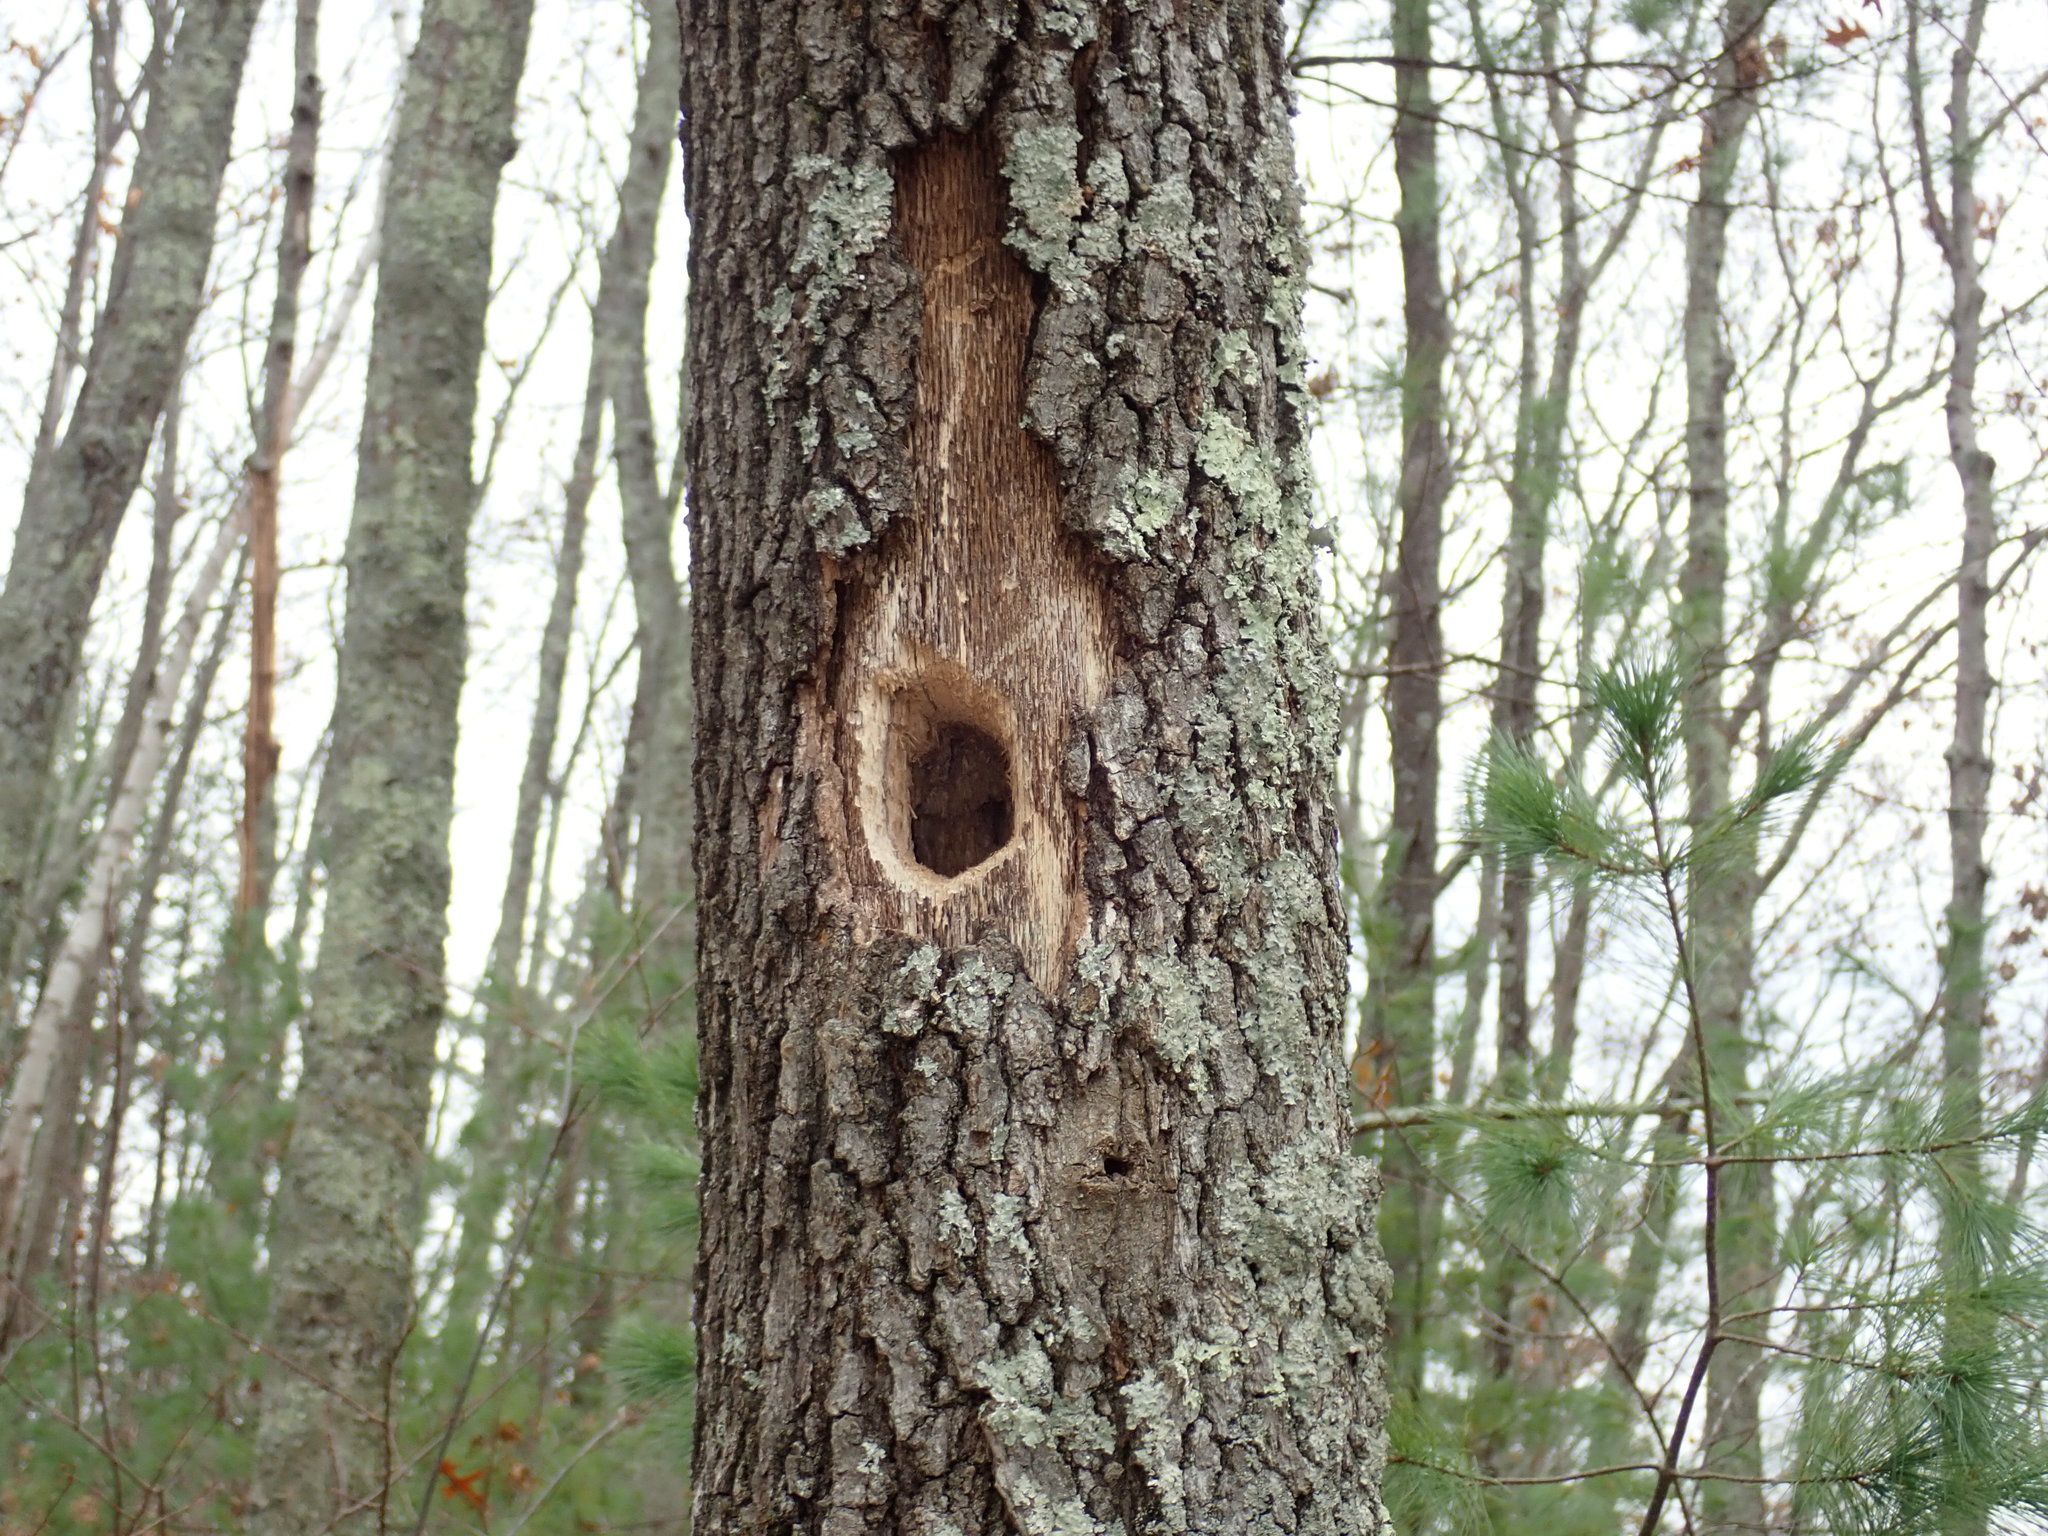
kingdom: Animalia
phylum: Chordata
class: Aves
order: Piciformes
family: Picidae
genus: Dryocopus
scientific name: Dryocopus pileatus
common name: Pileated woodpecker
